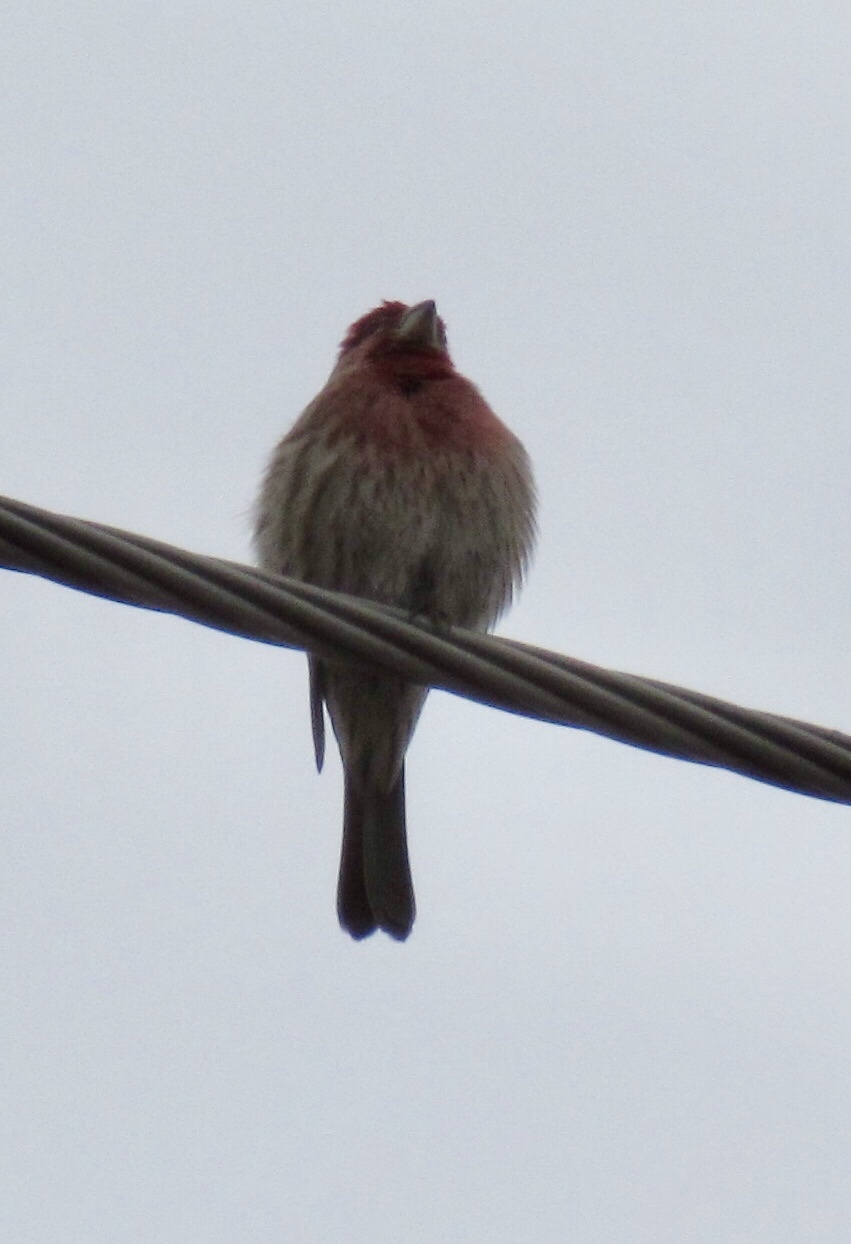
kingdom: Animalia
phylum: Chordata
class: Aves
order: Passeriformes
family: Fringillidae
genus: Haemorhous
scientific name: Haemorhous mexicanus
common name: House finch
